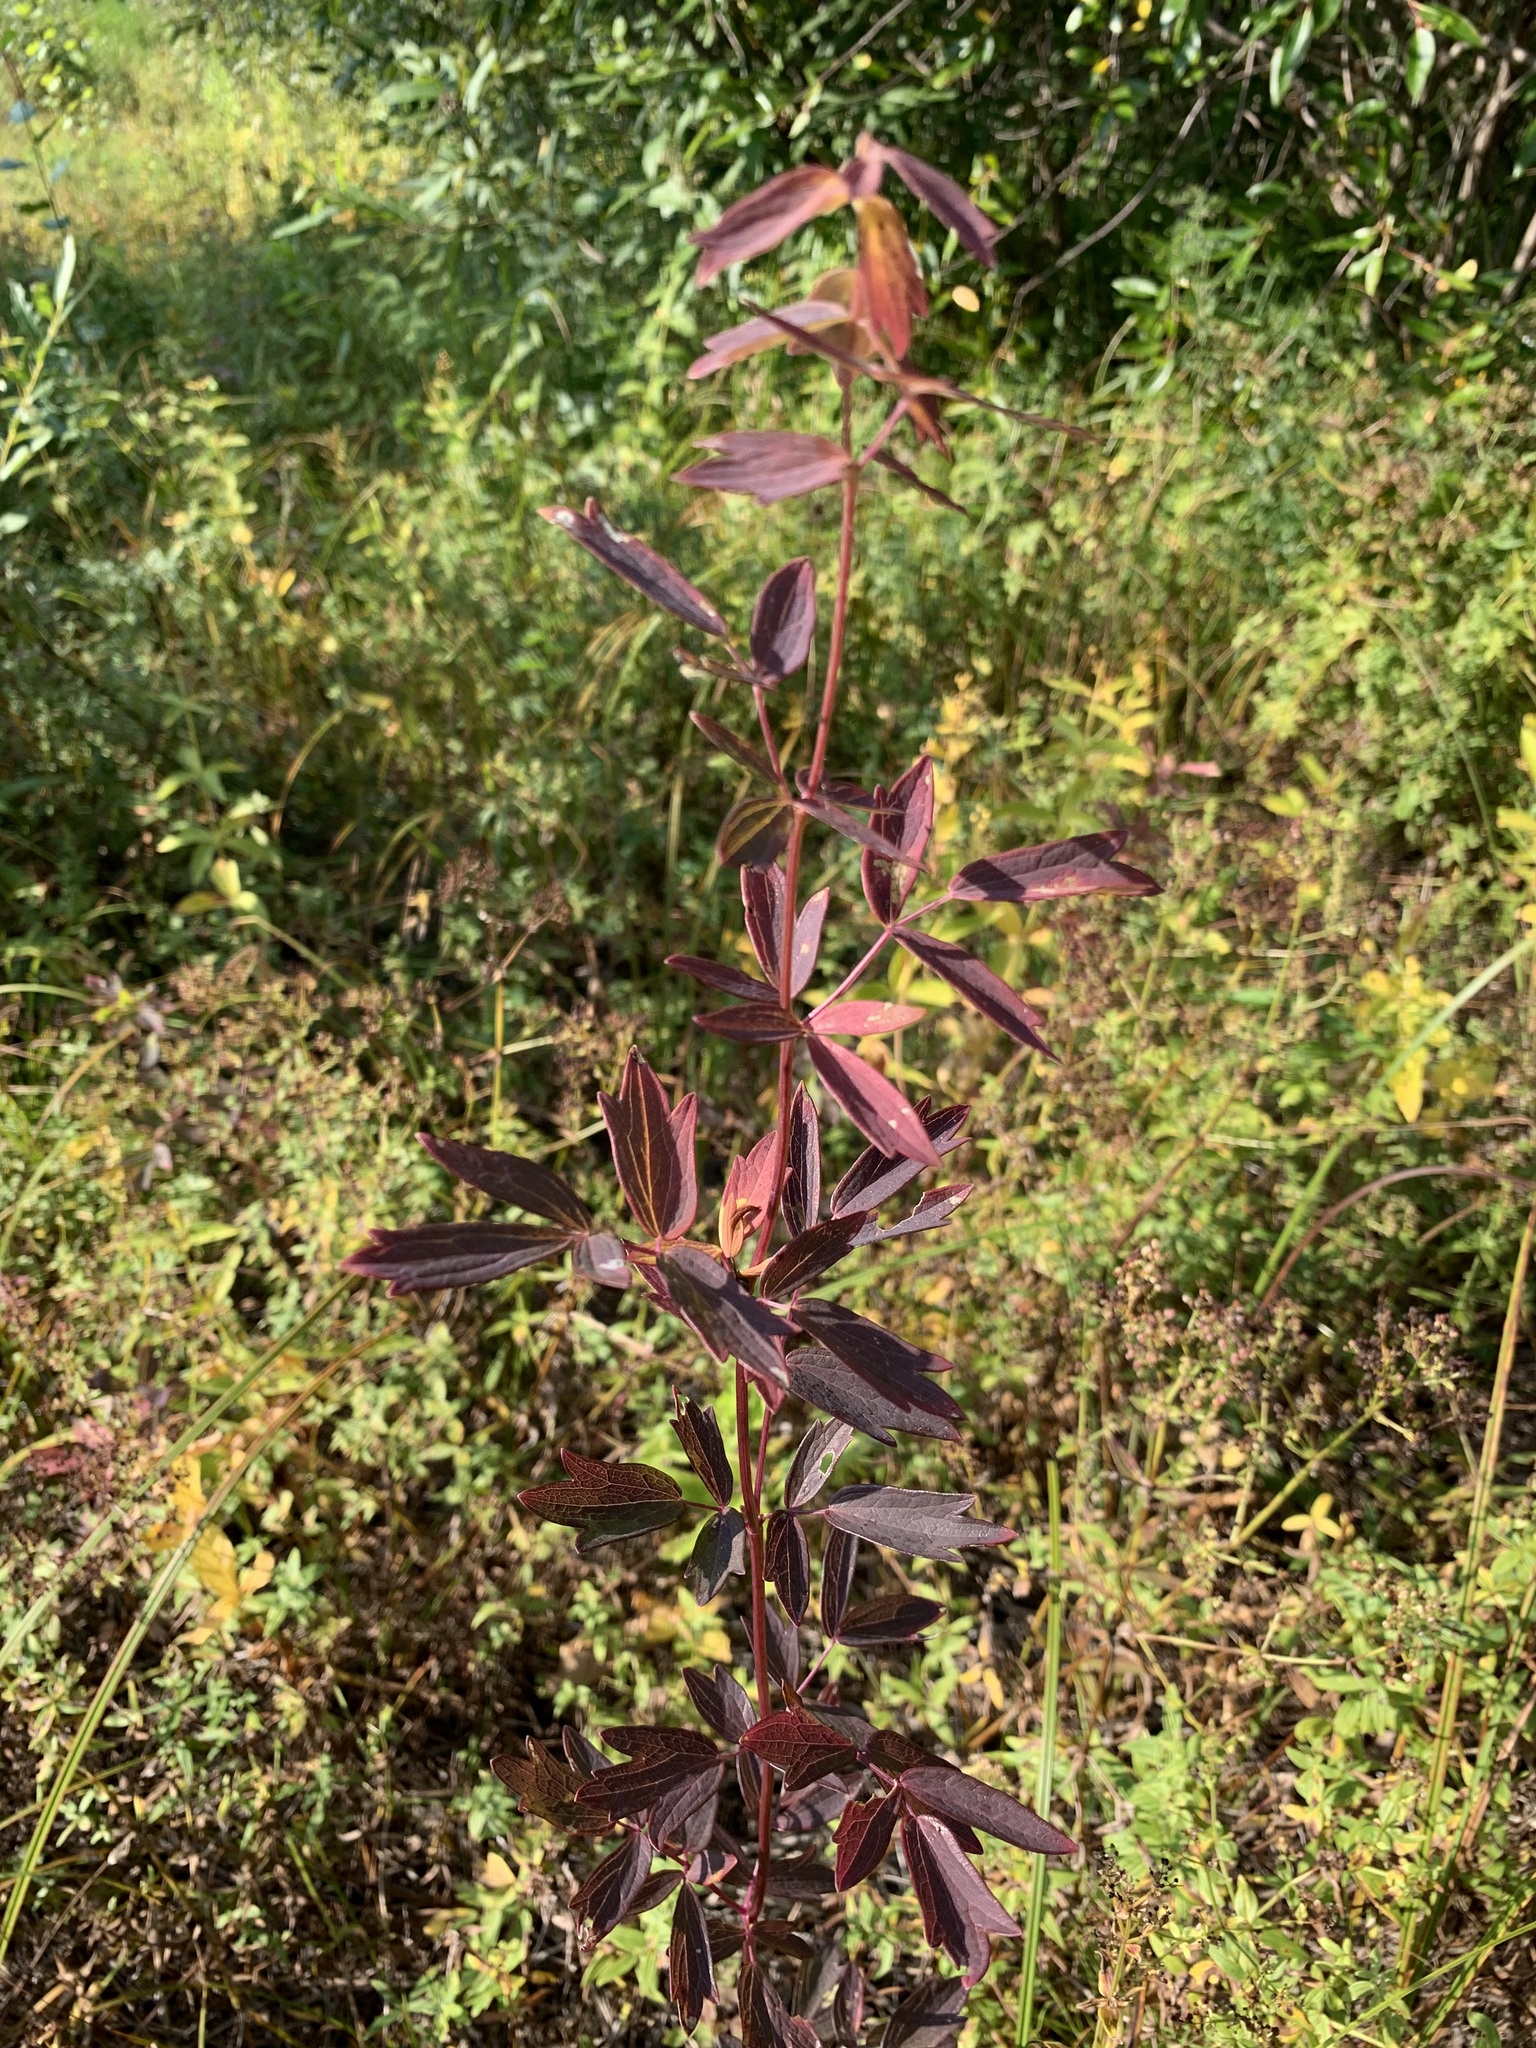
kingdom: Plantae
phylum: Tracheophyta
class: Magnoliopsida
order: Ranunculales
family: Ranunculaceae
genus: Thalictrum
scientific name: Thalictrum simplex
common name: Small meadow-rue
